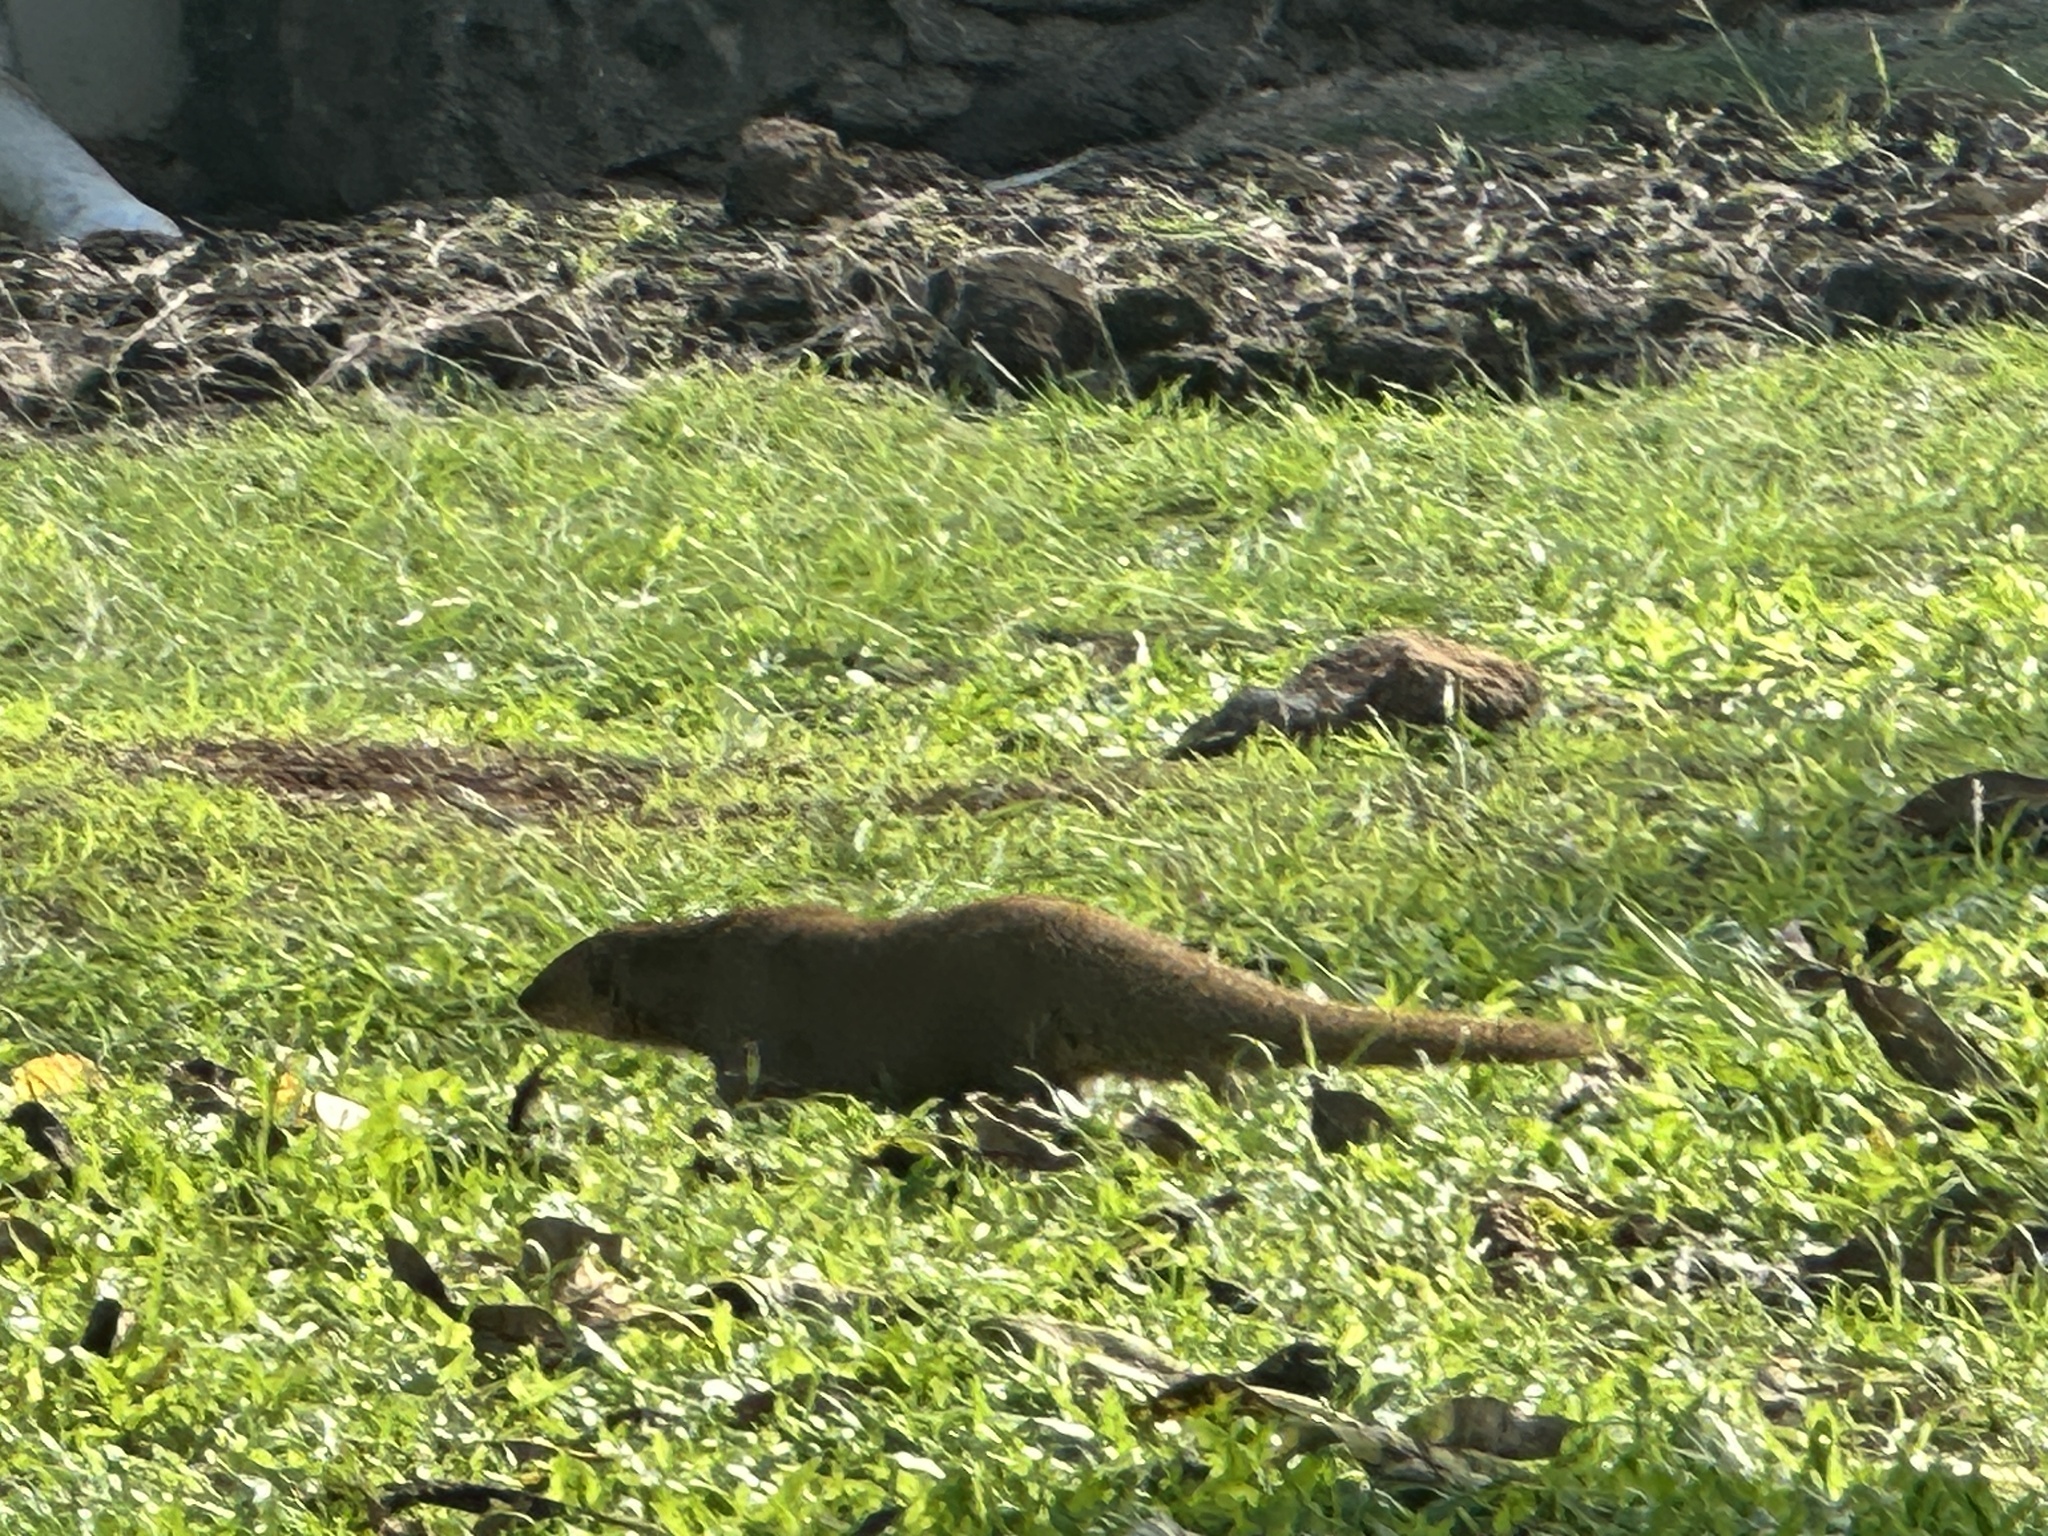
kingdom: Animalia
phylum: Chordata
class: Mammalia
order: Carnivora
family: Herpestidae
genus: Herpestes
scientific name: Herpestes javanicus
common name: Small asian mongoose
